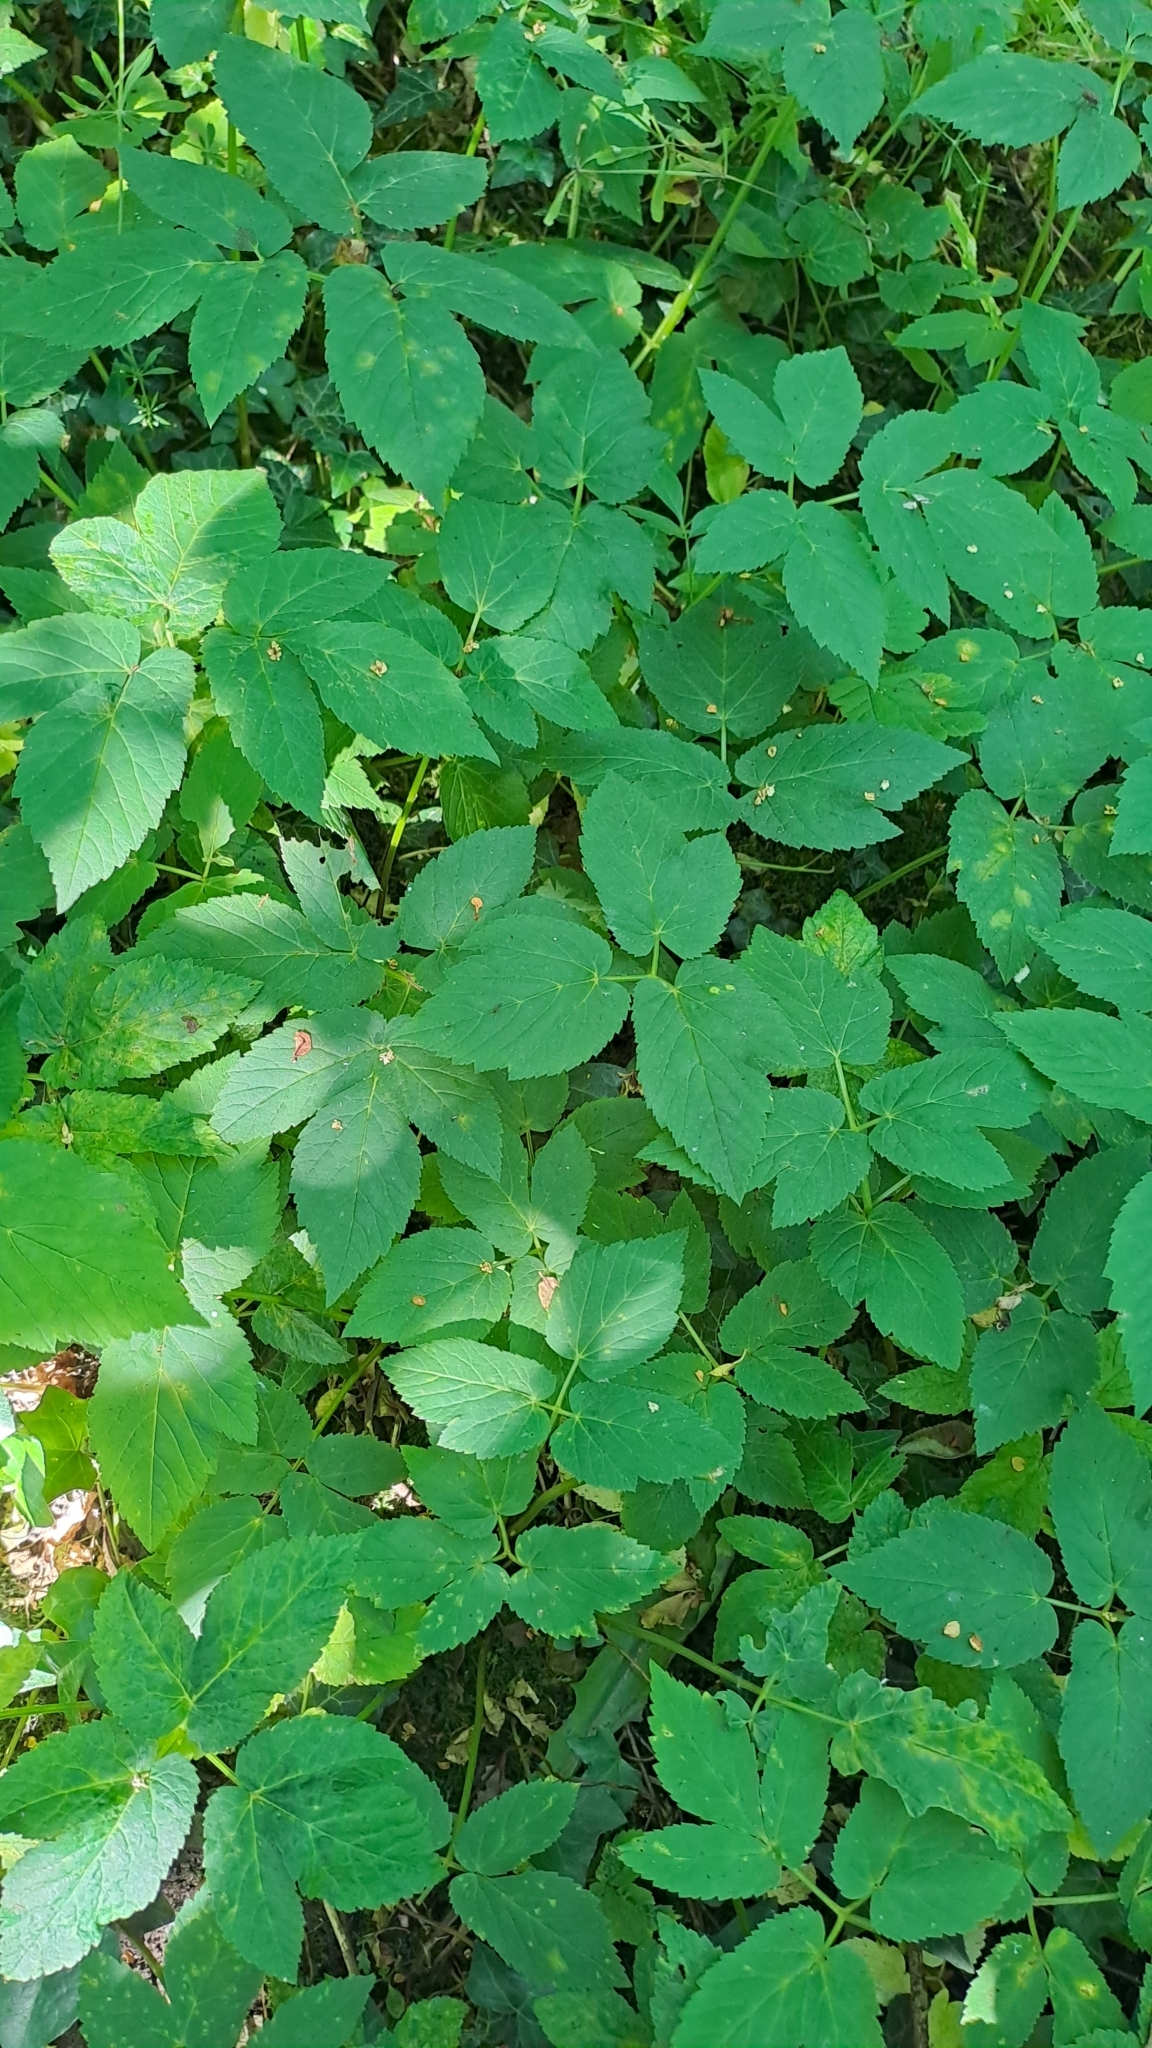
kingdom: Plantae
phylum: Tracheophyta
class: Magnoliopsida
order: Apiales
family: Apiaceae
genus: Aegopodium
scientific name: Aegopodium podagraria
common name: Ground-elder
